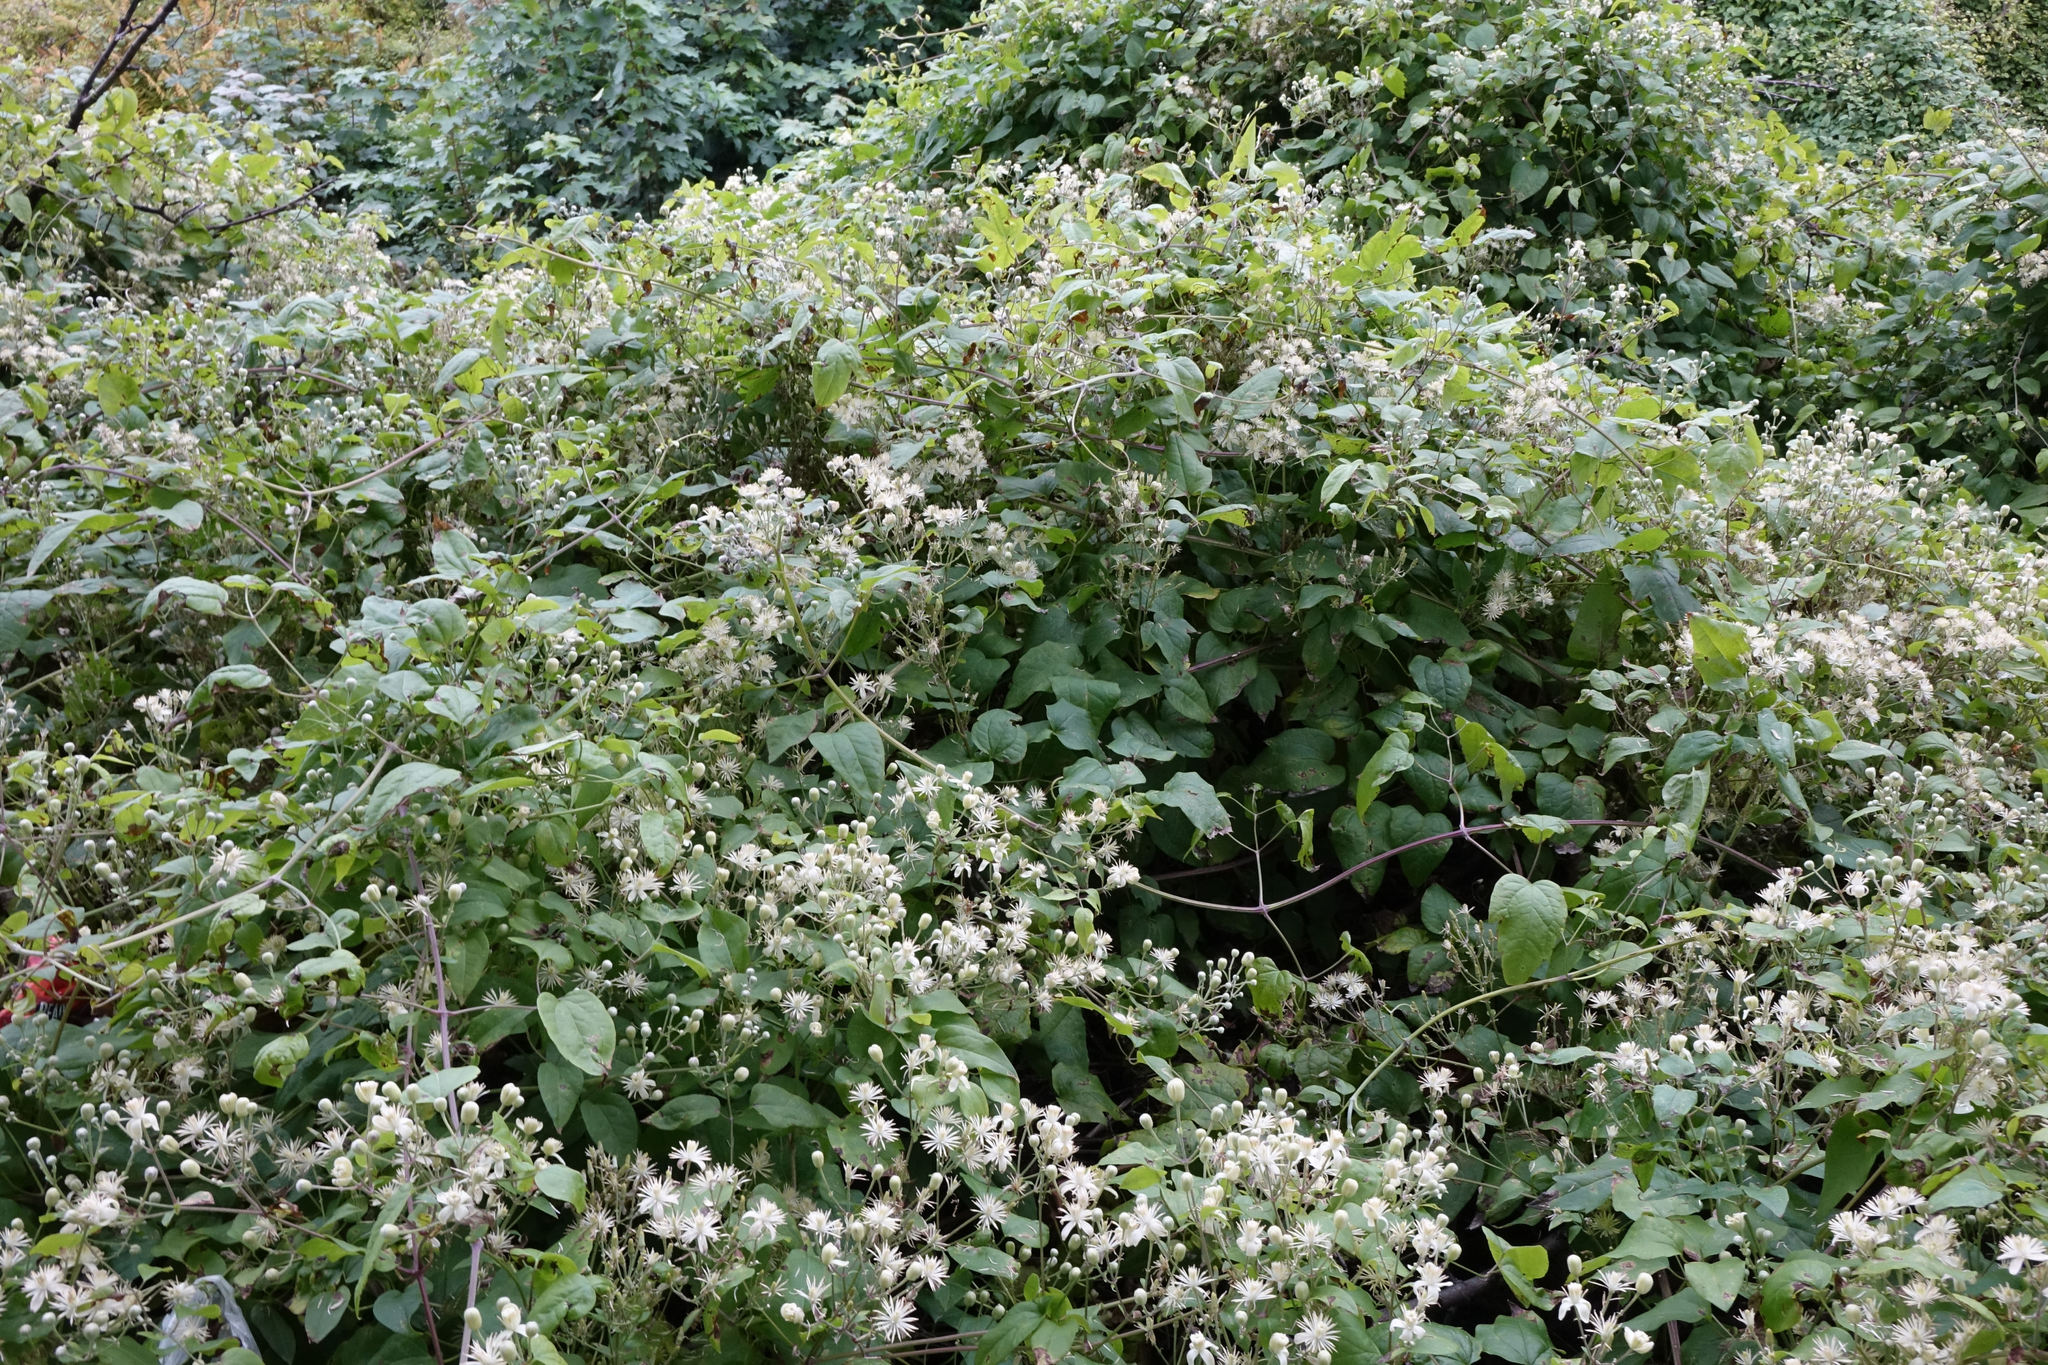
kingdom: Plantae
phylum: Tracheophyta
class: Magnoliopsida
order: Ranunculales
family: Ranunculaceae
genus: Clematis
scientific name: Clematis vitalba
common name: Evergreen clematis
